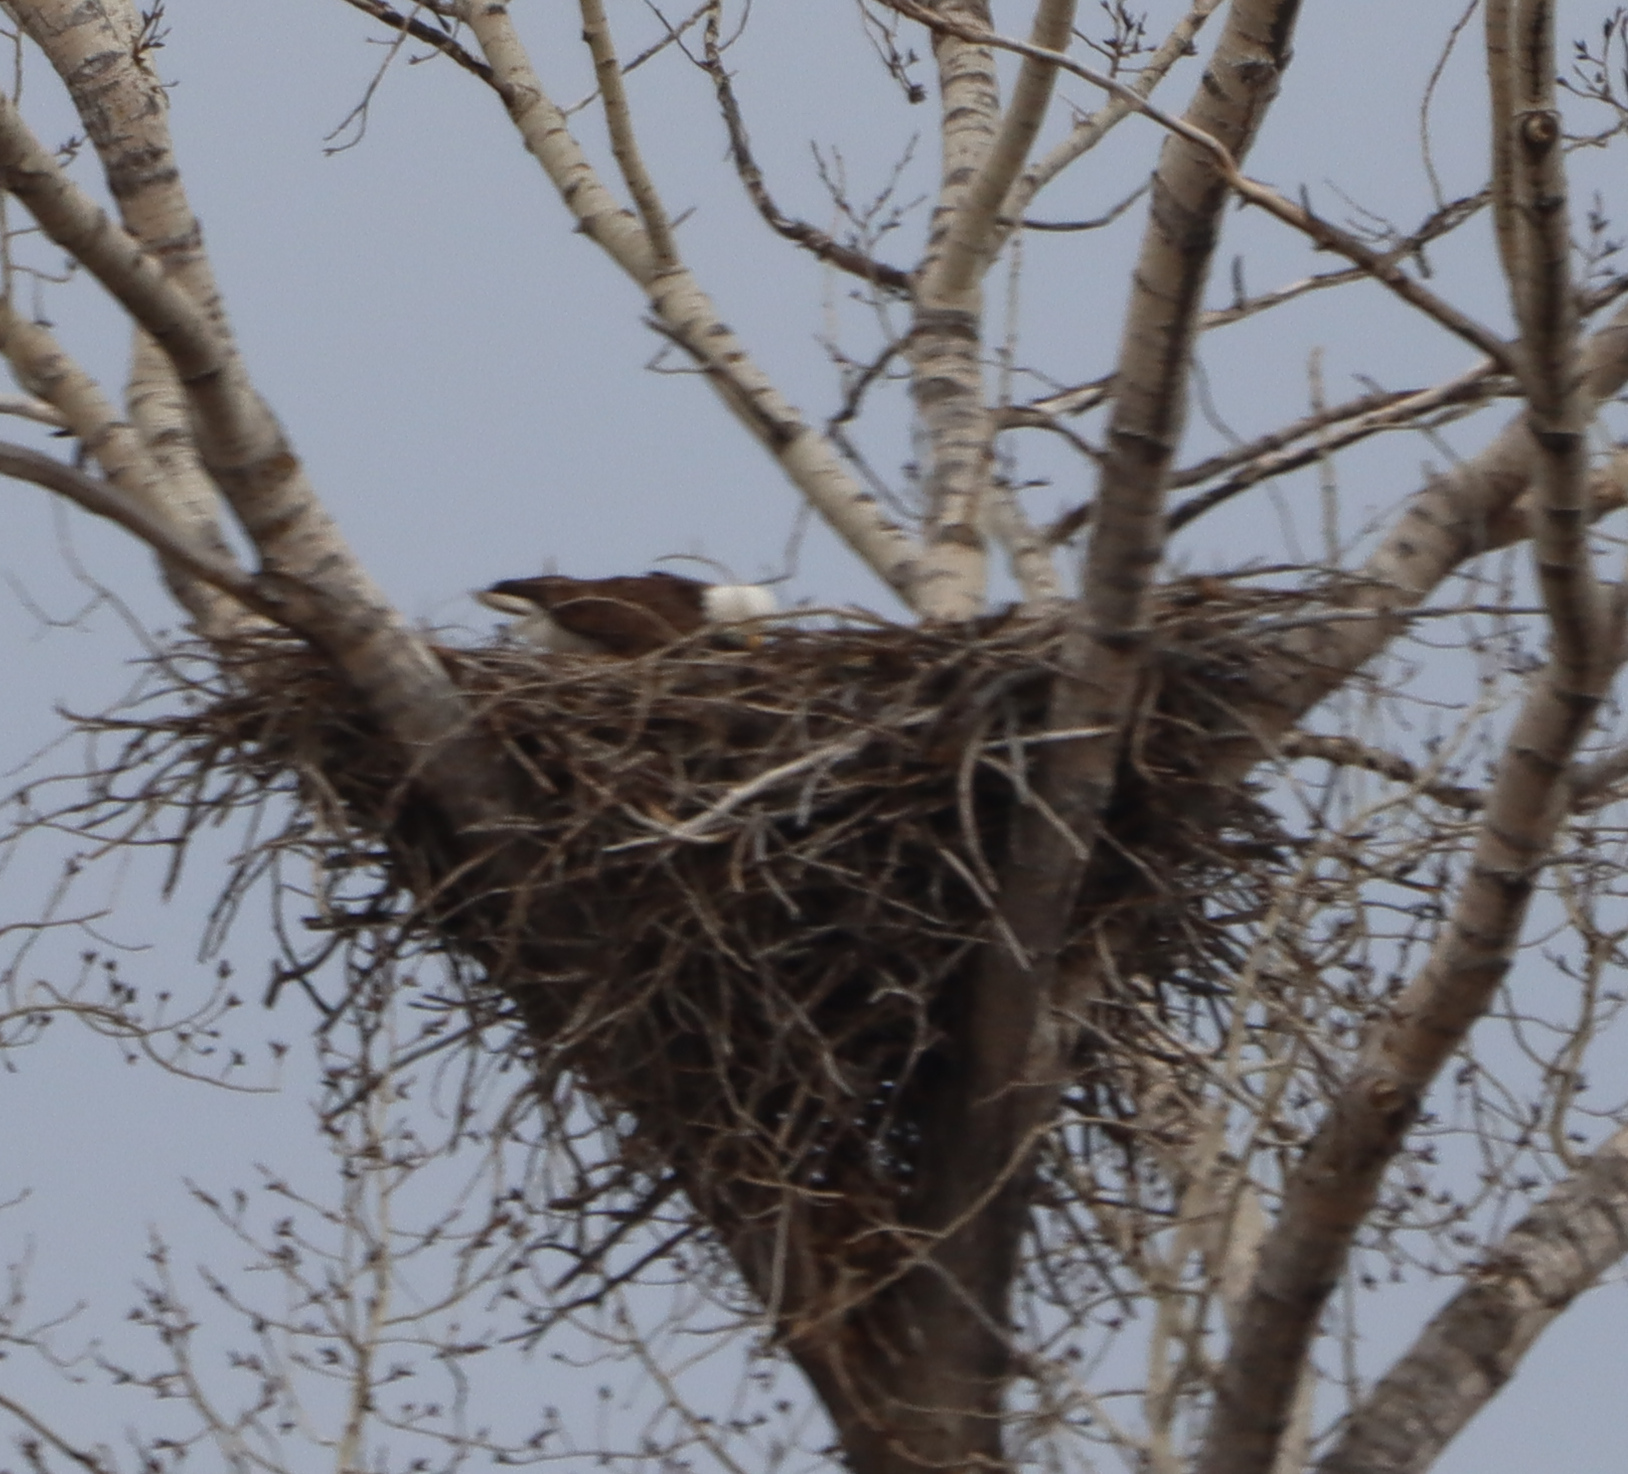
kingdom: Animalia
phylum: Chordata
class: Aves
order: Accipitriformes
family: Accipitridae
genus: Haliaeetus
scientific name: Haliaeetus leucocephalus
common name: Bald eagle
